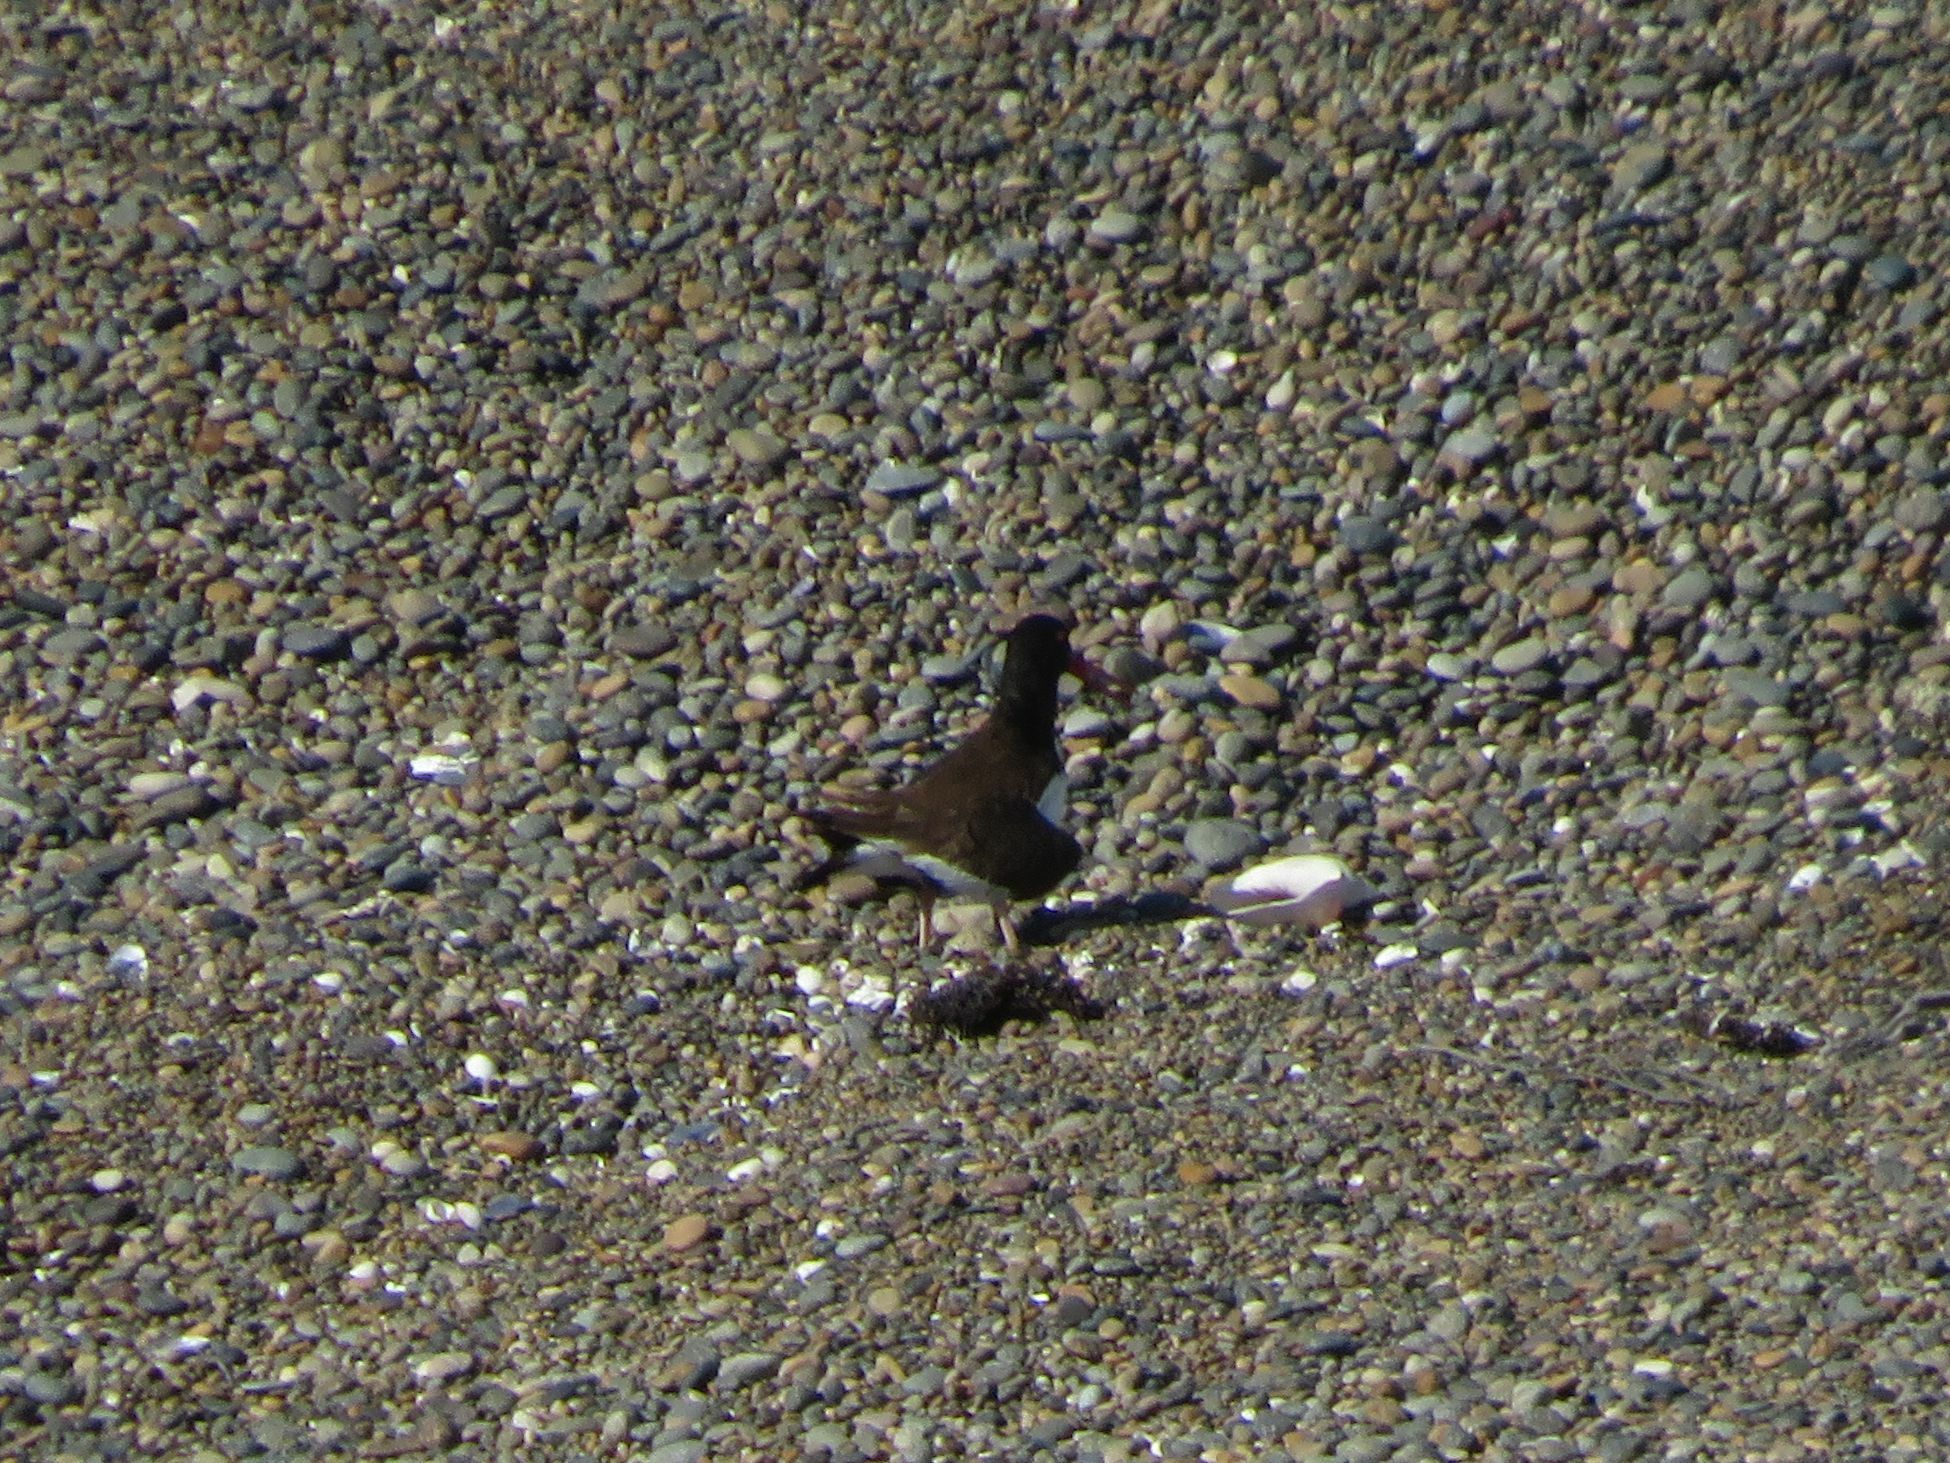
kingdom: Animalia
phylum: Chordata
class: Aves
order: Charadriiformes
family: Haematopodidae
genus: Haematopus
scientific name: Haematopus palliatus
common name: American oystercatcher
